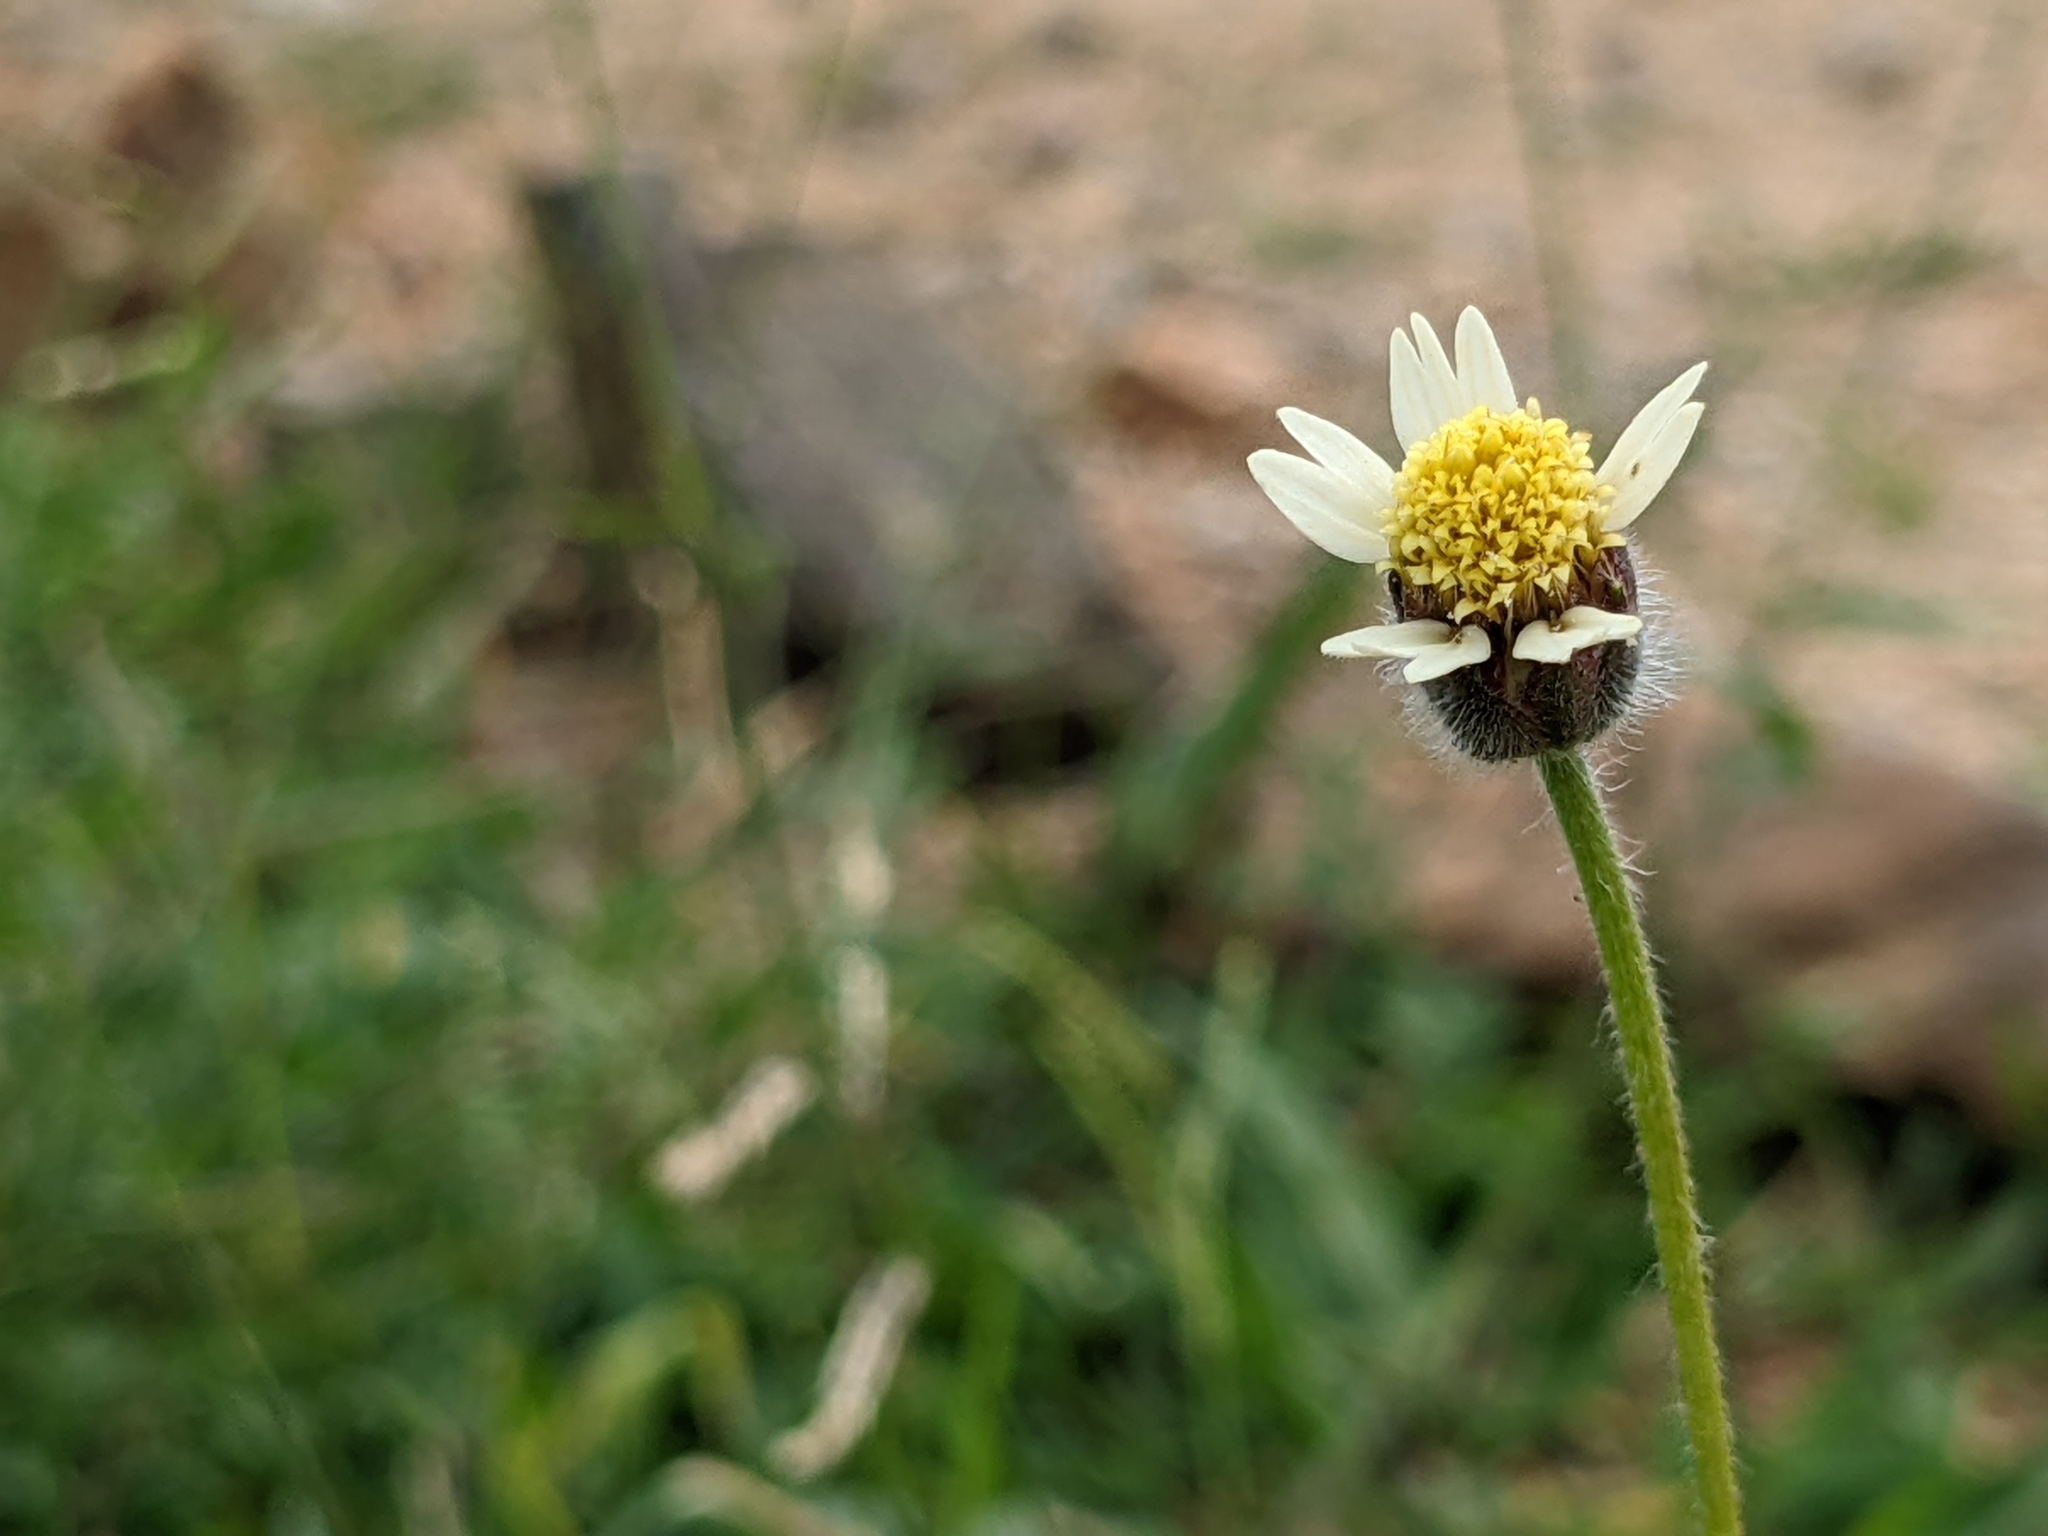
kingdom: Plantae
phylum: Tracheophyta
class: Magnoliopsida
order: Asterales
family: Asteraceae
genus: Tridax
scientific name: Tridax procumbens
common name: Coatbuttons
